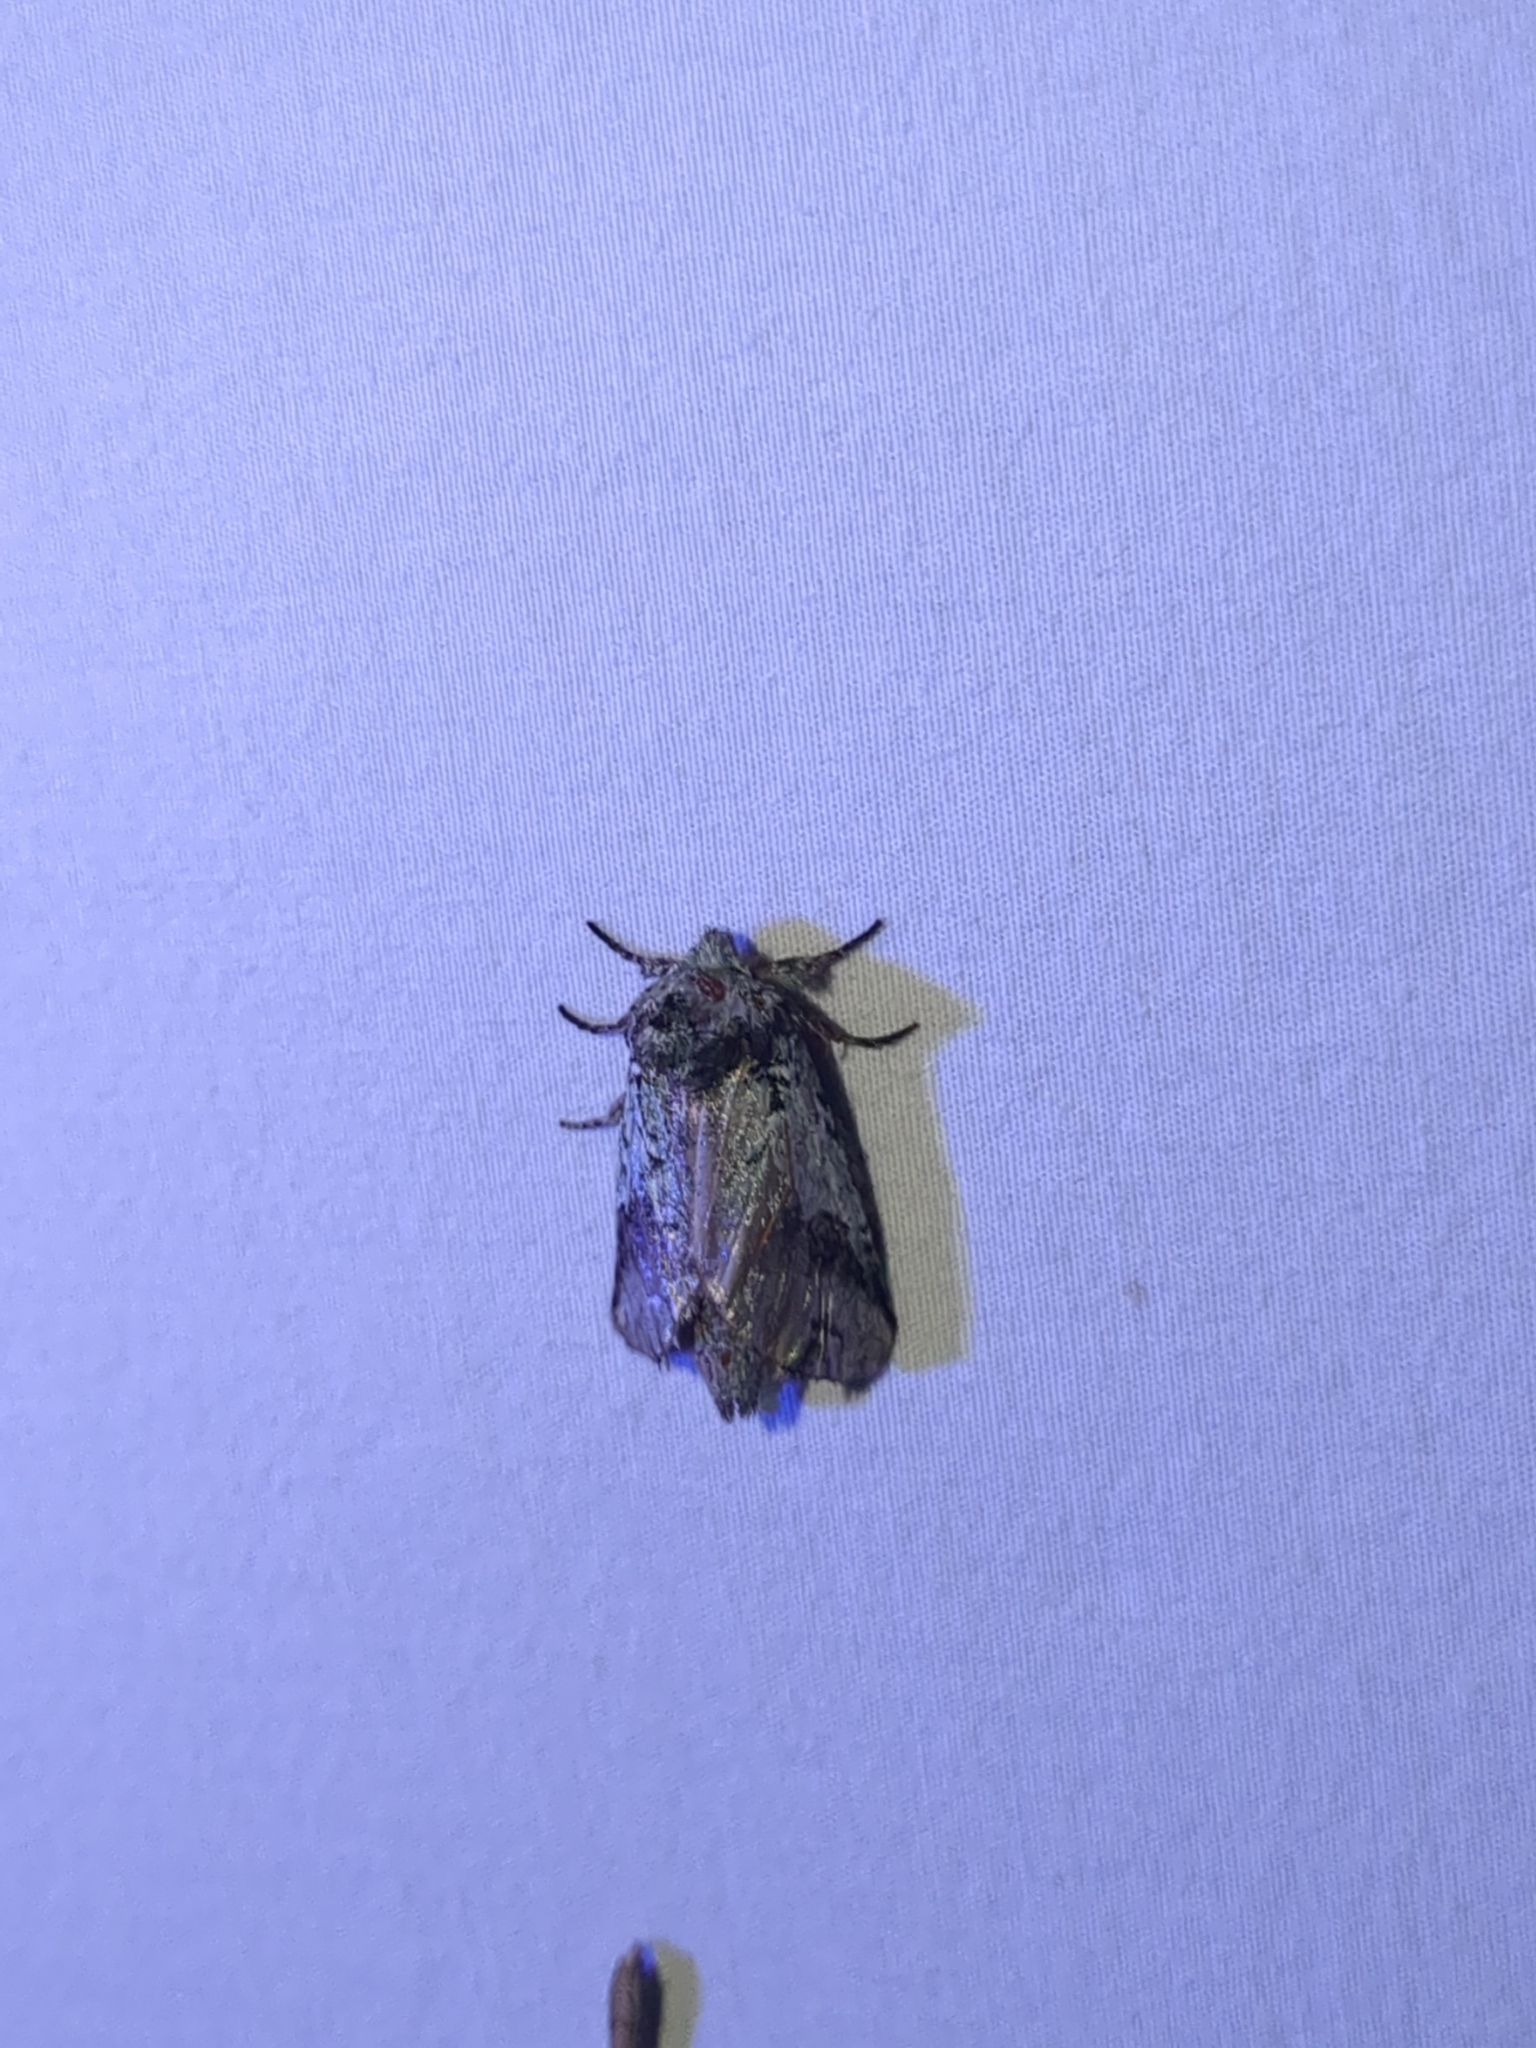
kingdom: Animalia
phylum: Arthropoda
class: Insecta
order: Lepidoptera
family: Notodontidae
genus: Litodonta
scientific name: Litodonta hydromeli
